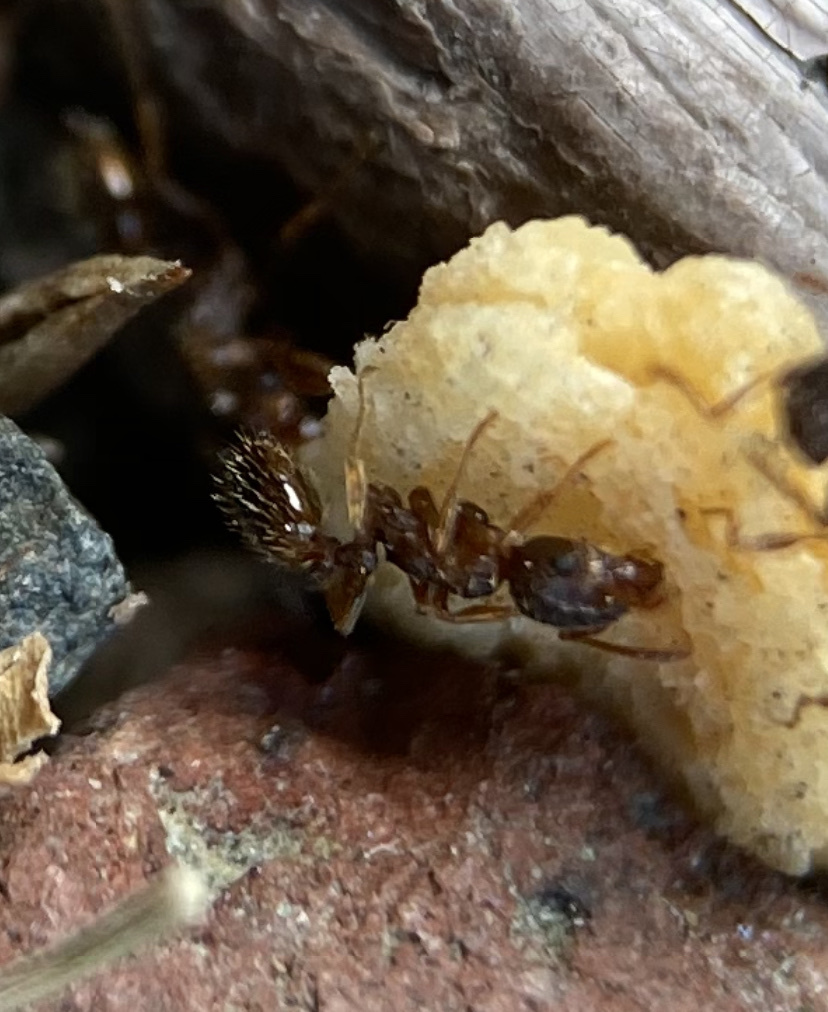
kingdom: Animalia
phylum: Arthropoda
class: Insecta
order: Hymenoptera
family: Formicidae
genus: Tetramorium
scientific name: Tetramorium immigrans
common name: Pavement ant
